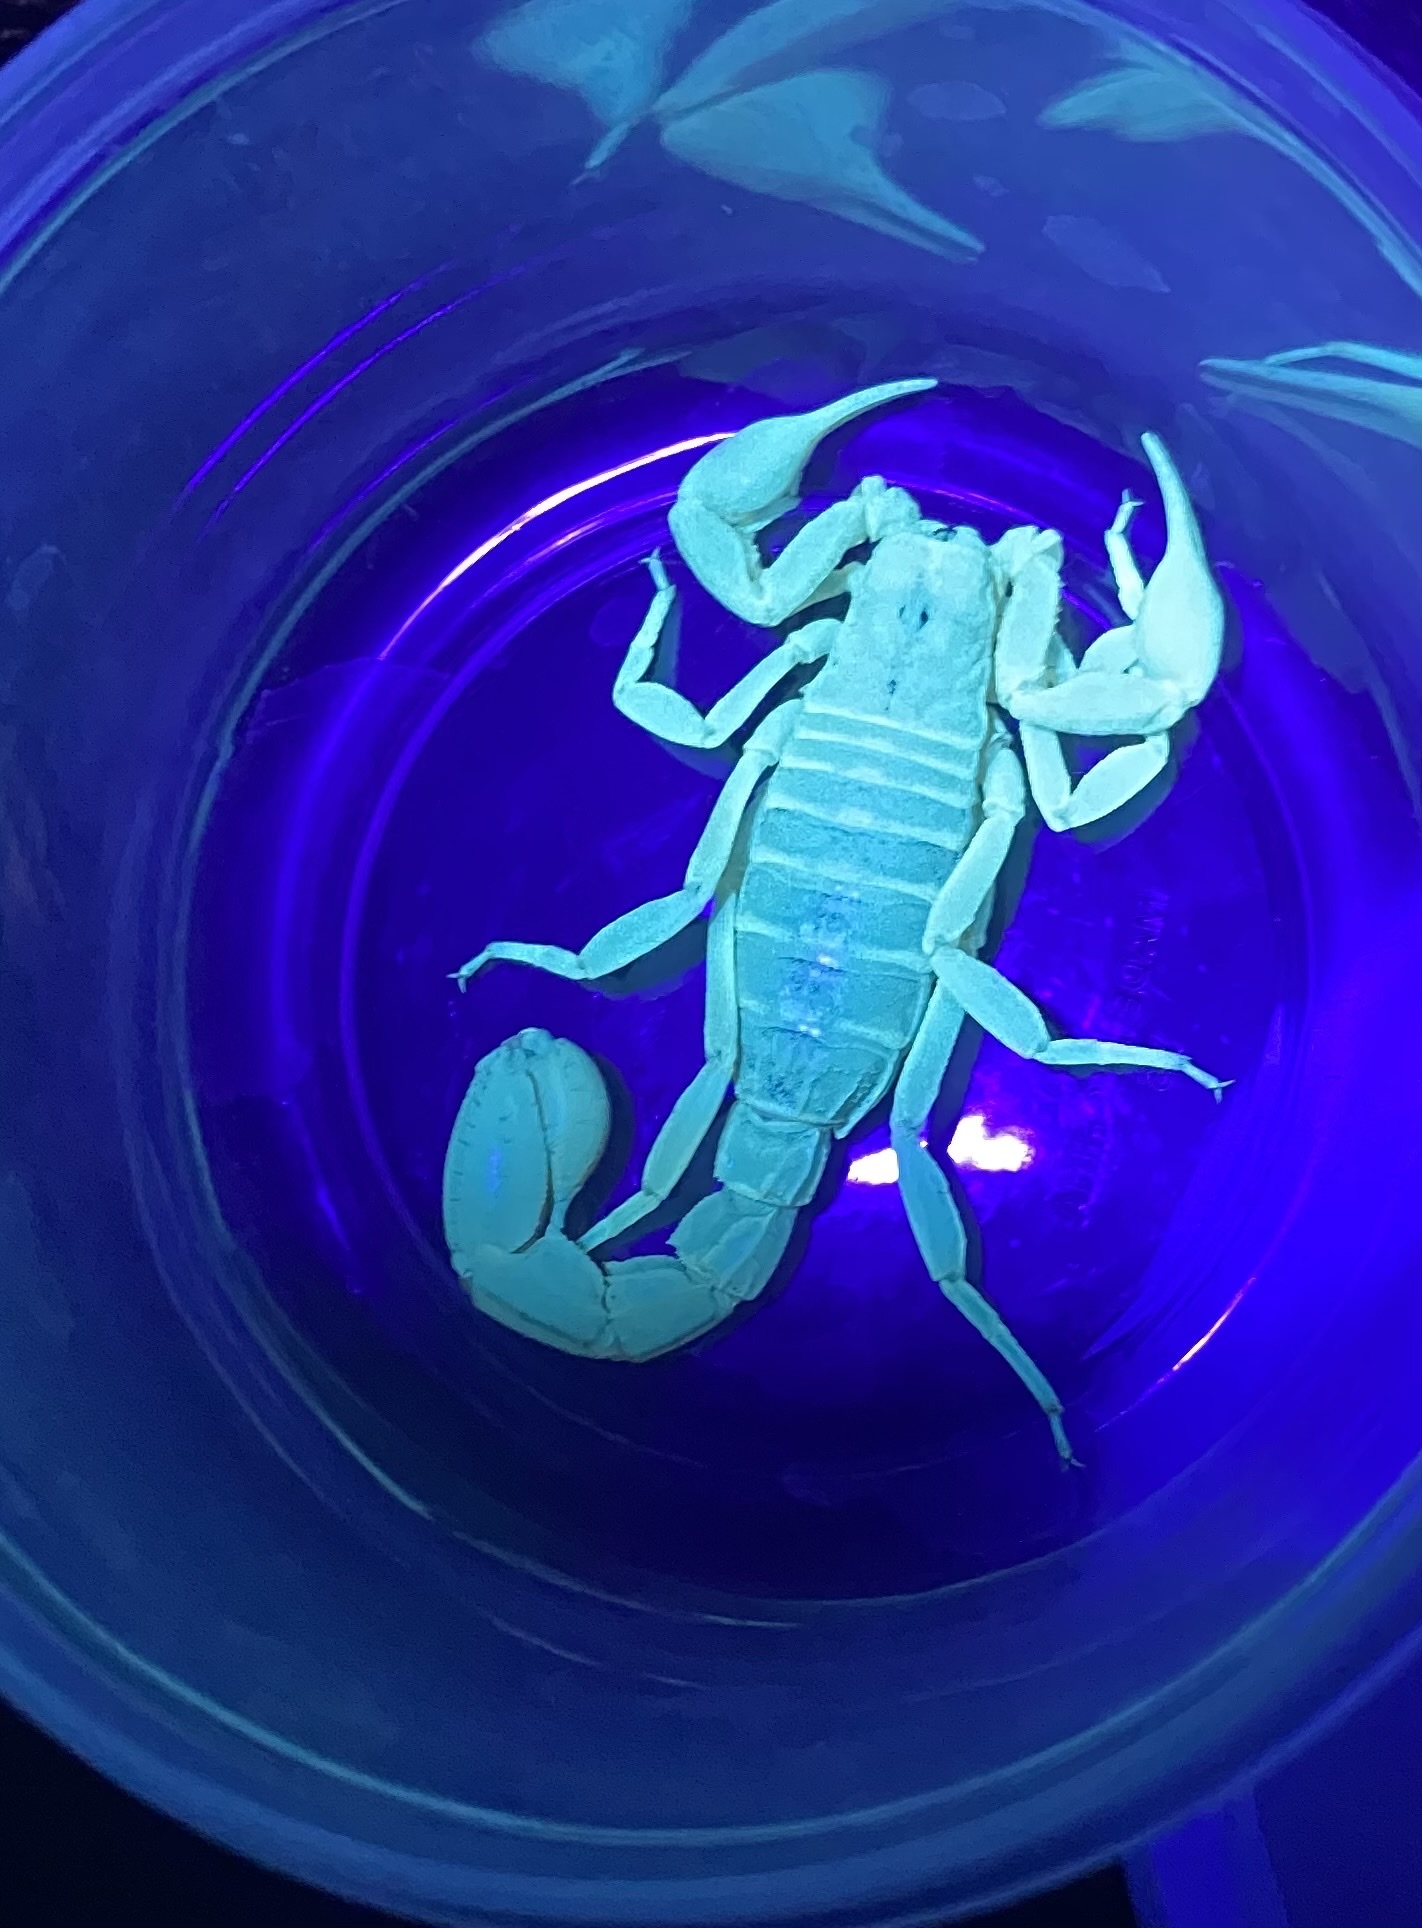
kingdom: Animalia
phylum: Arthropoda
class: Arachnida
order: Scorpiones
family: Vaejovidae
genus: Paravaejovis
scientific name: Paravaejovis spinigerus
